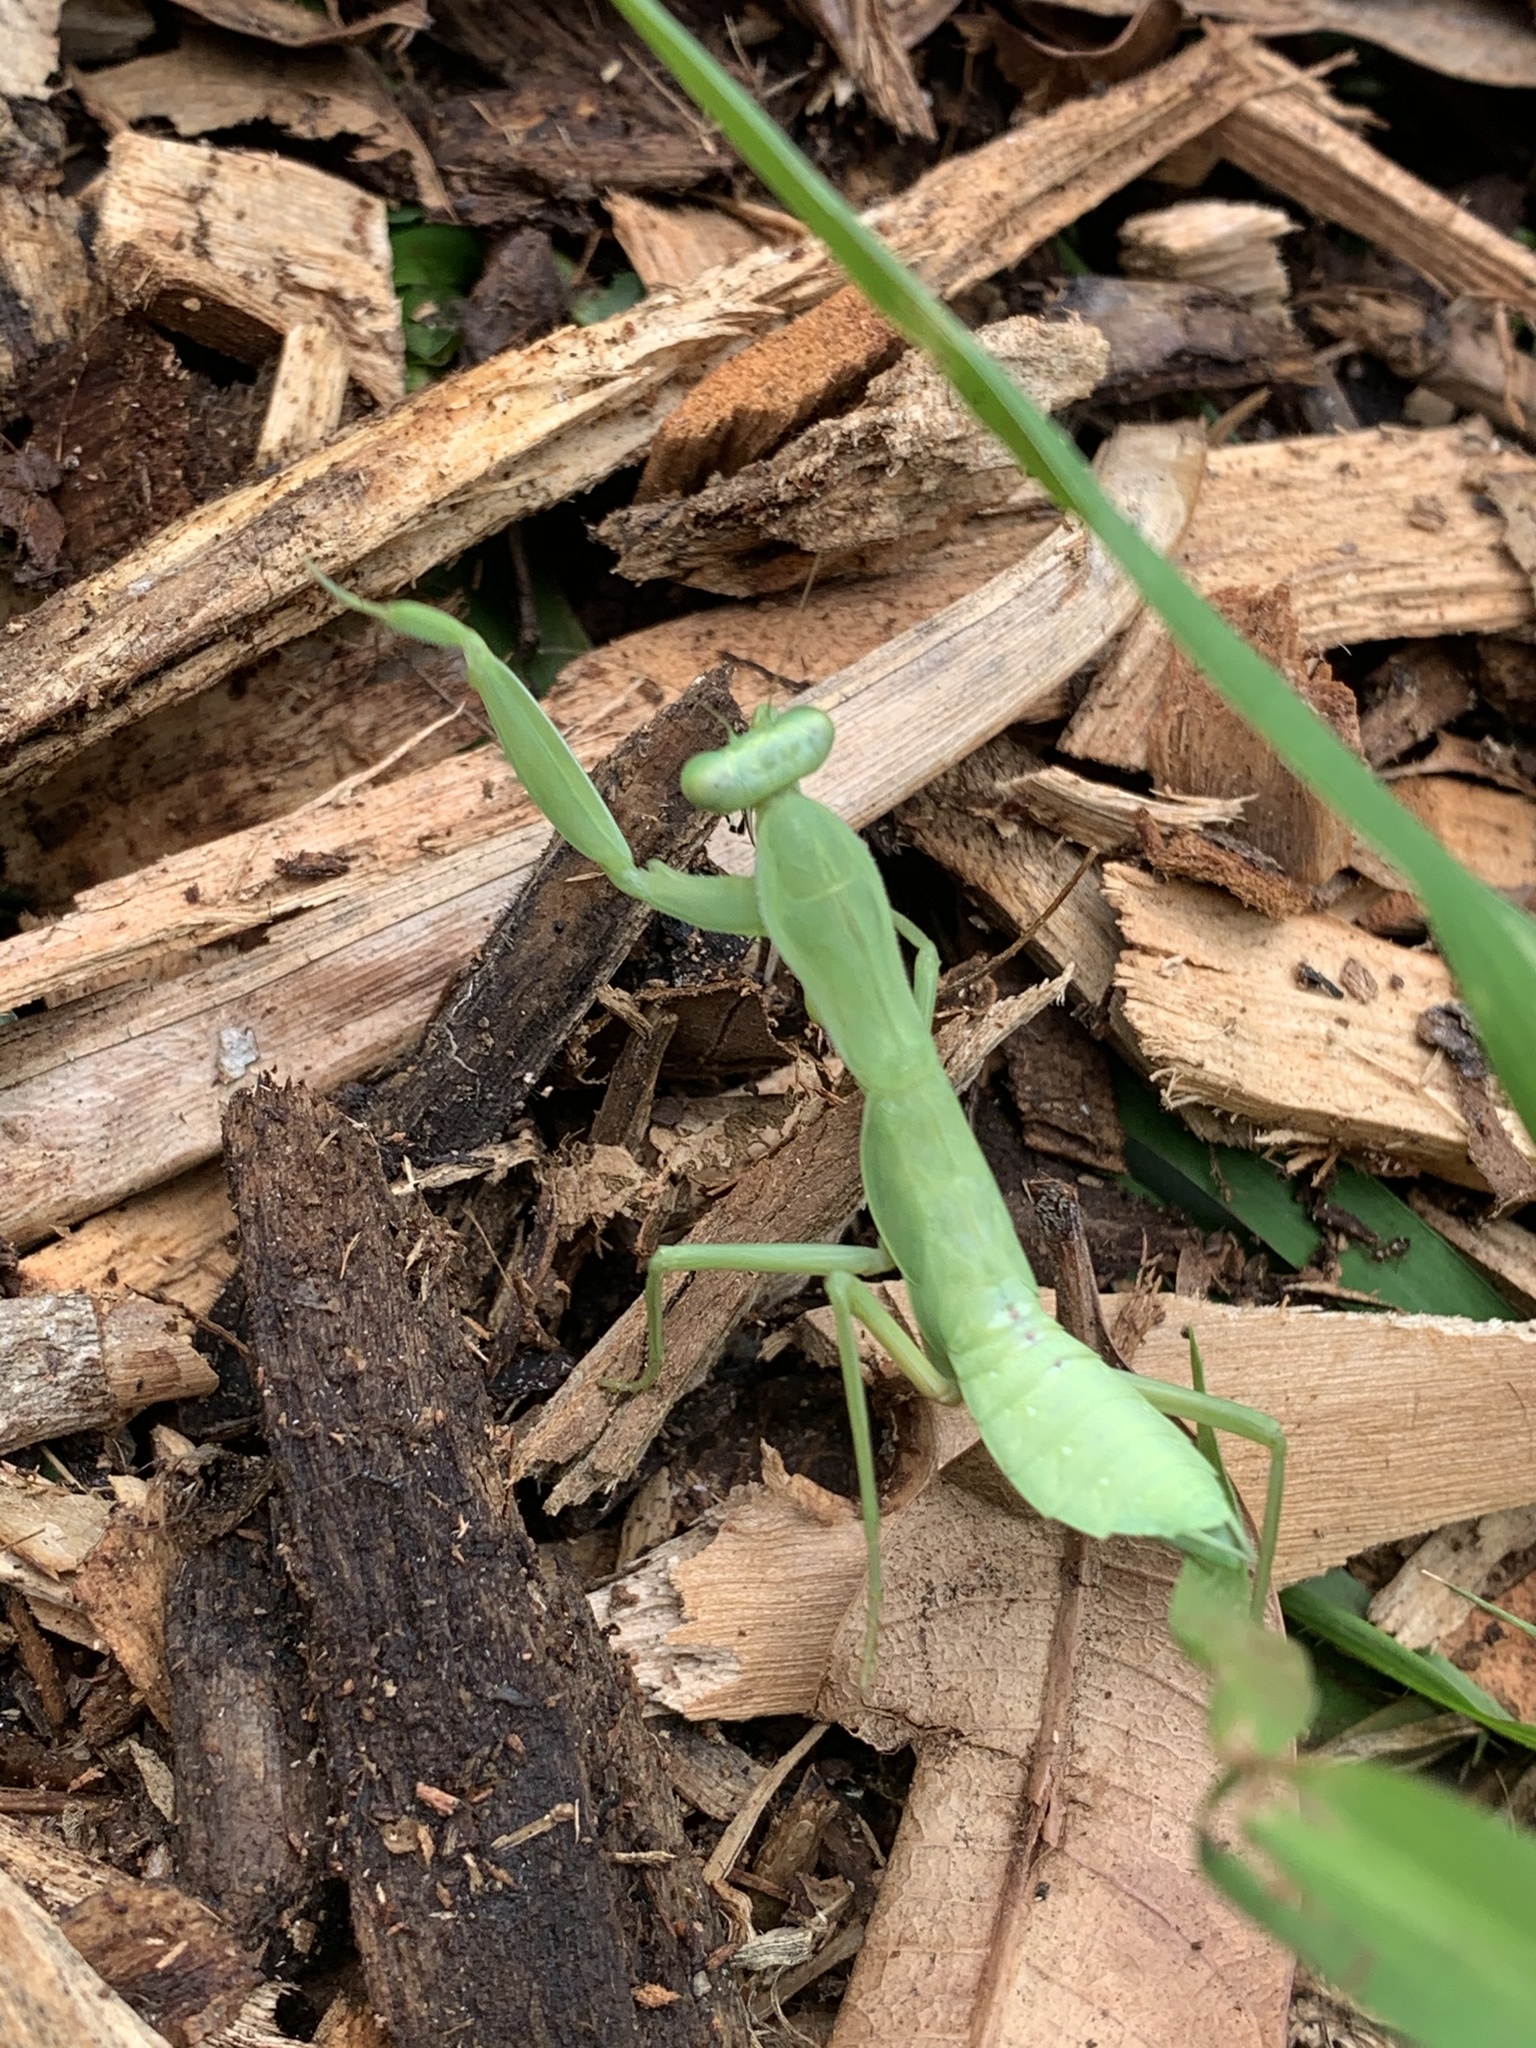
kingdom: Animalia
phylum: Arthropoda
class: Insecta
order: Mantodea
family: Mantidae
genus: Hierodula
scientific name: Hierodula patellifera
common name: Asian mantis
